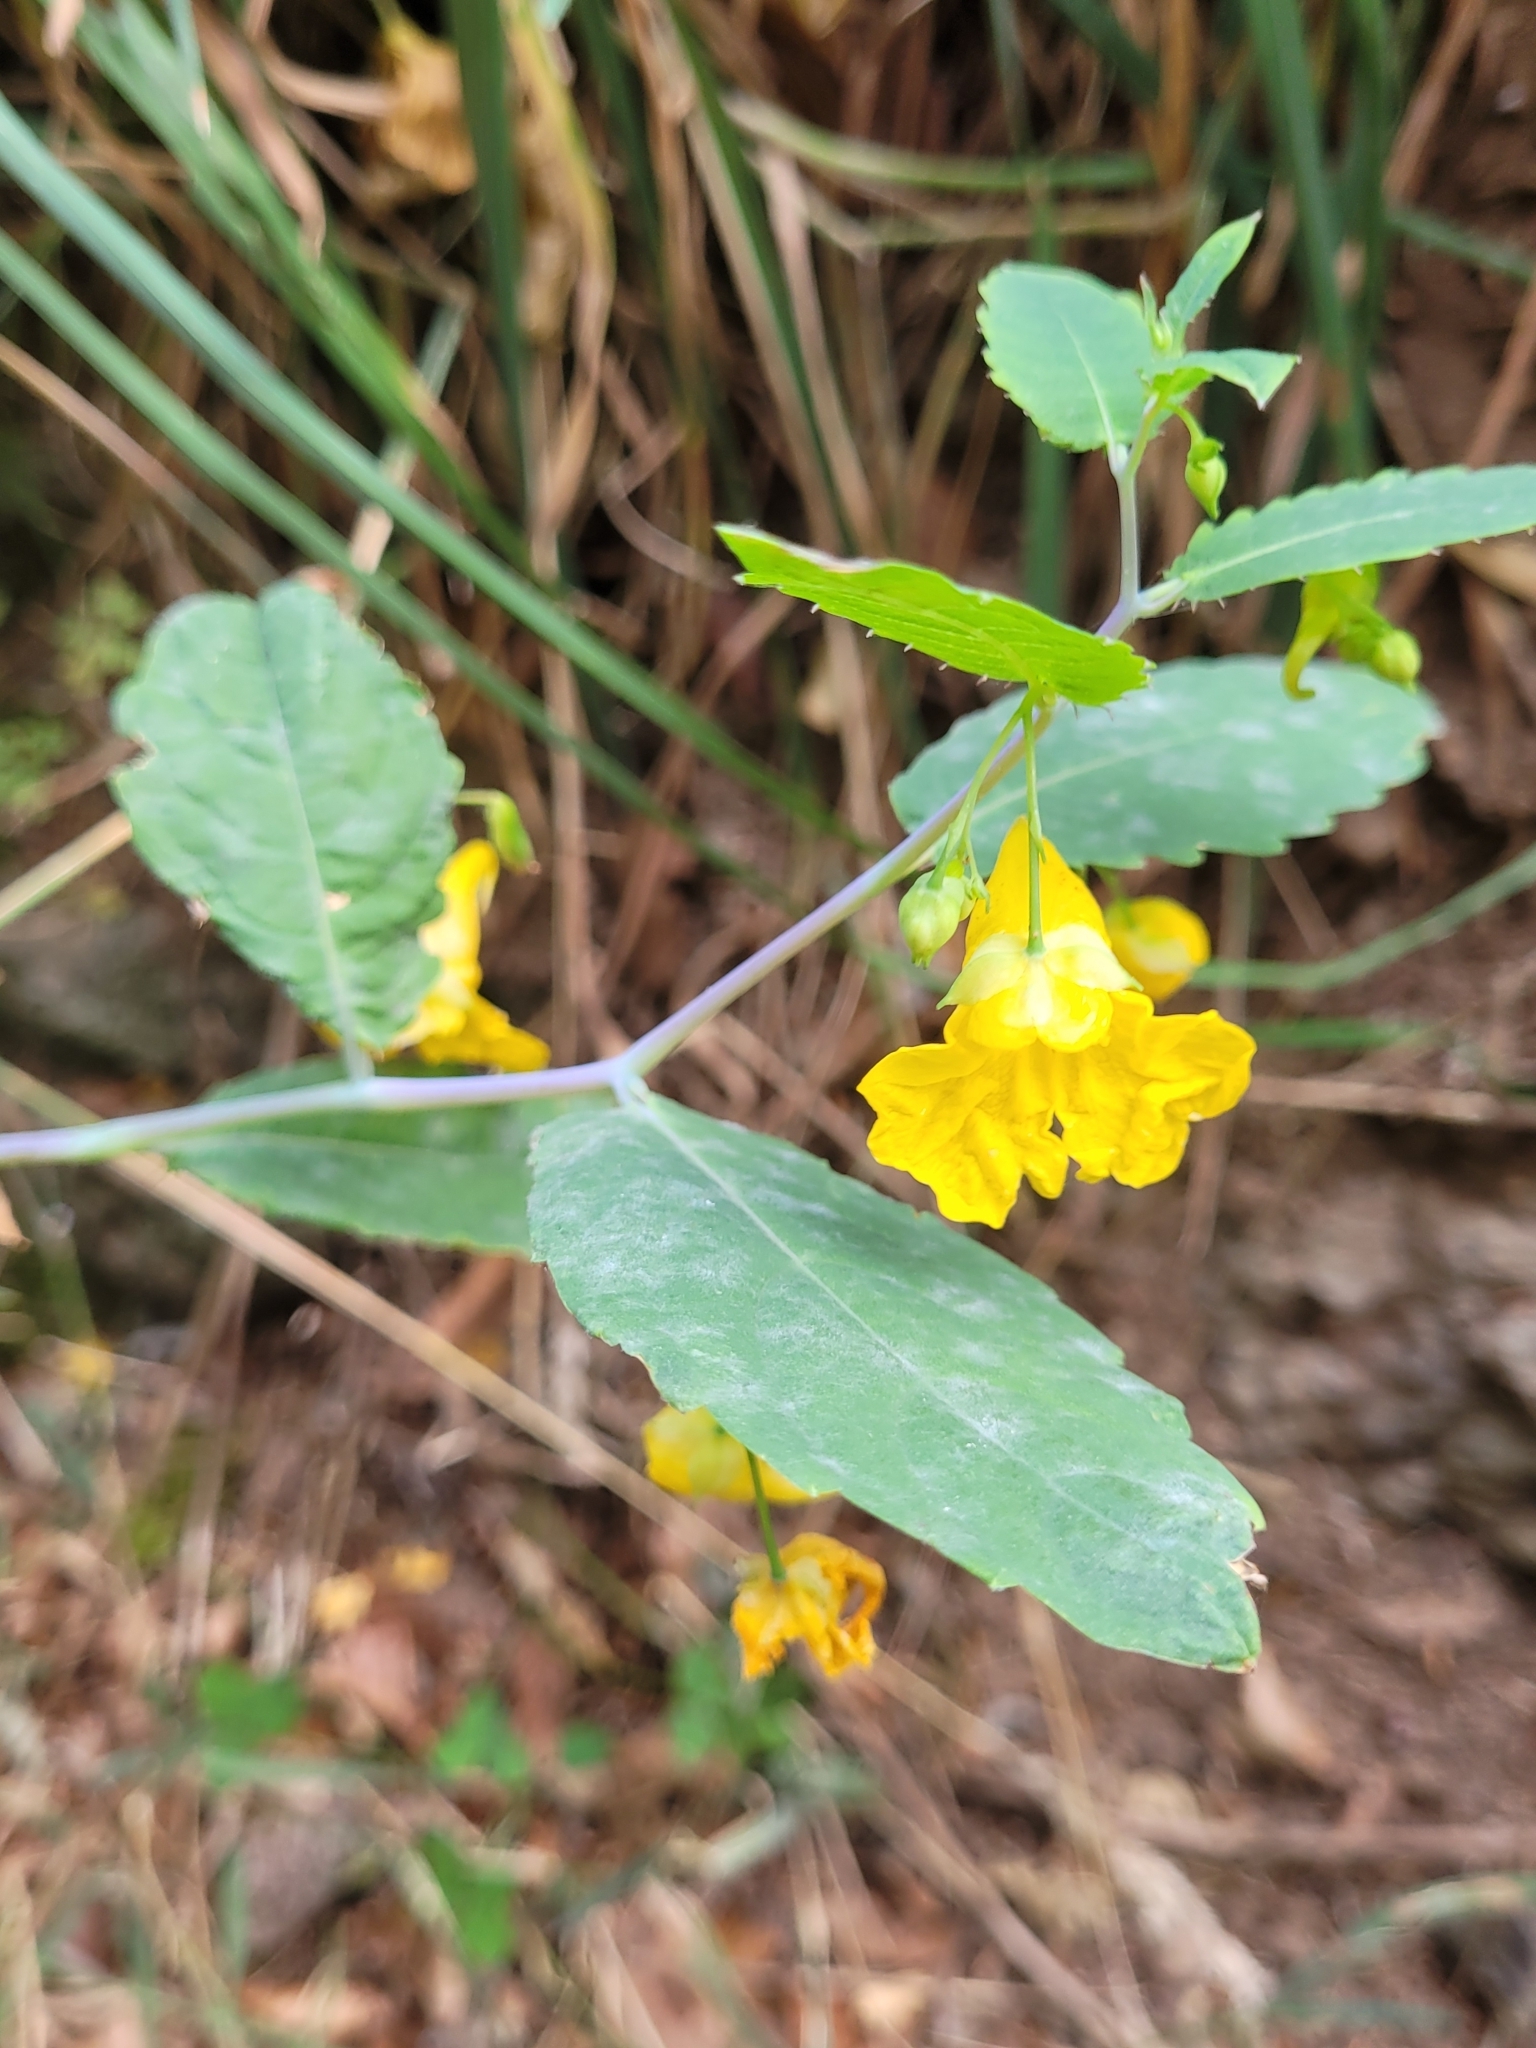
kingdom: Plantae
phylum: Tracheophyta
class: Magnoliopsida
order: Ericales
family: Balsaminaceae
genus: Impatiens
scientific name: Impatiens noli-tangere
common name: Touch-me-not balsam
